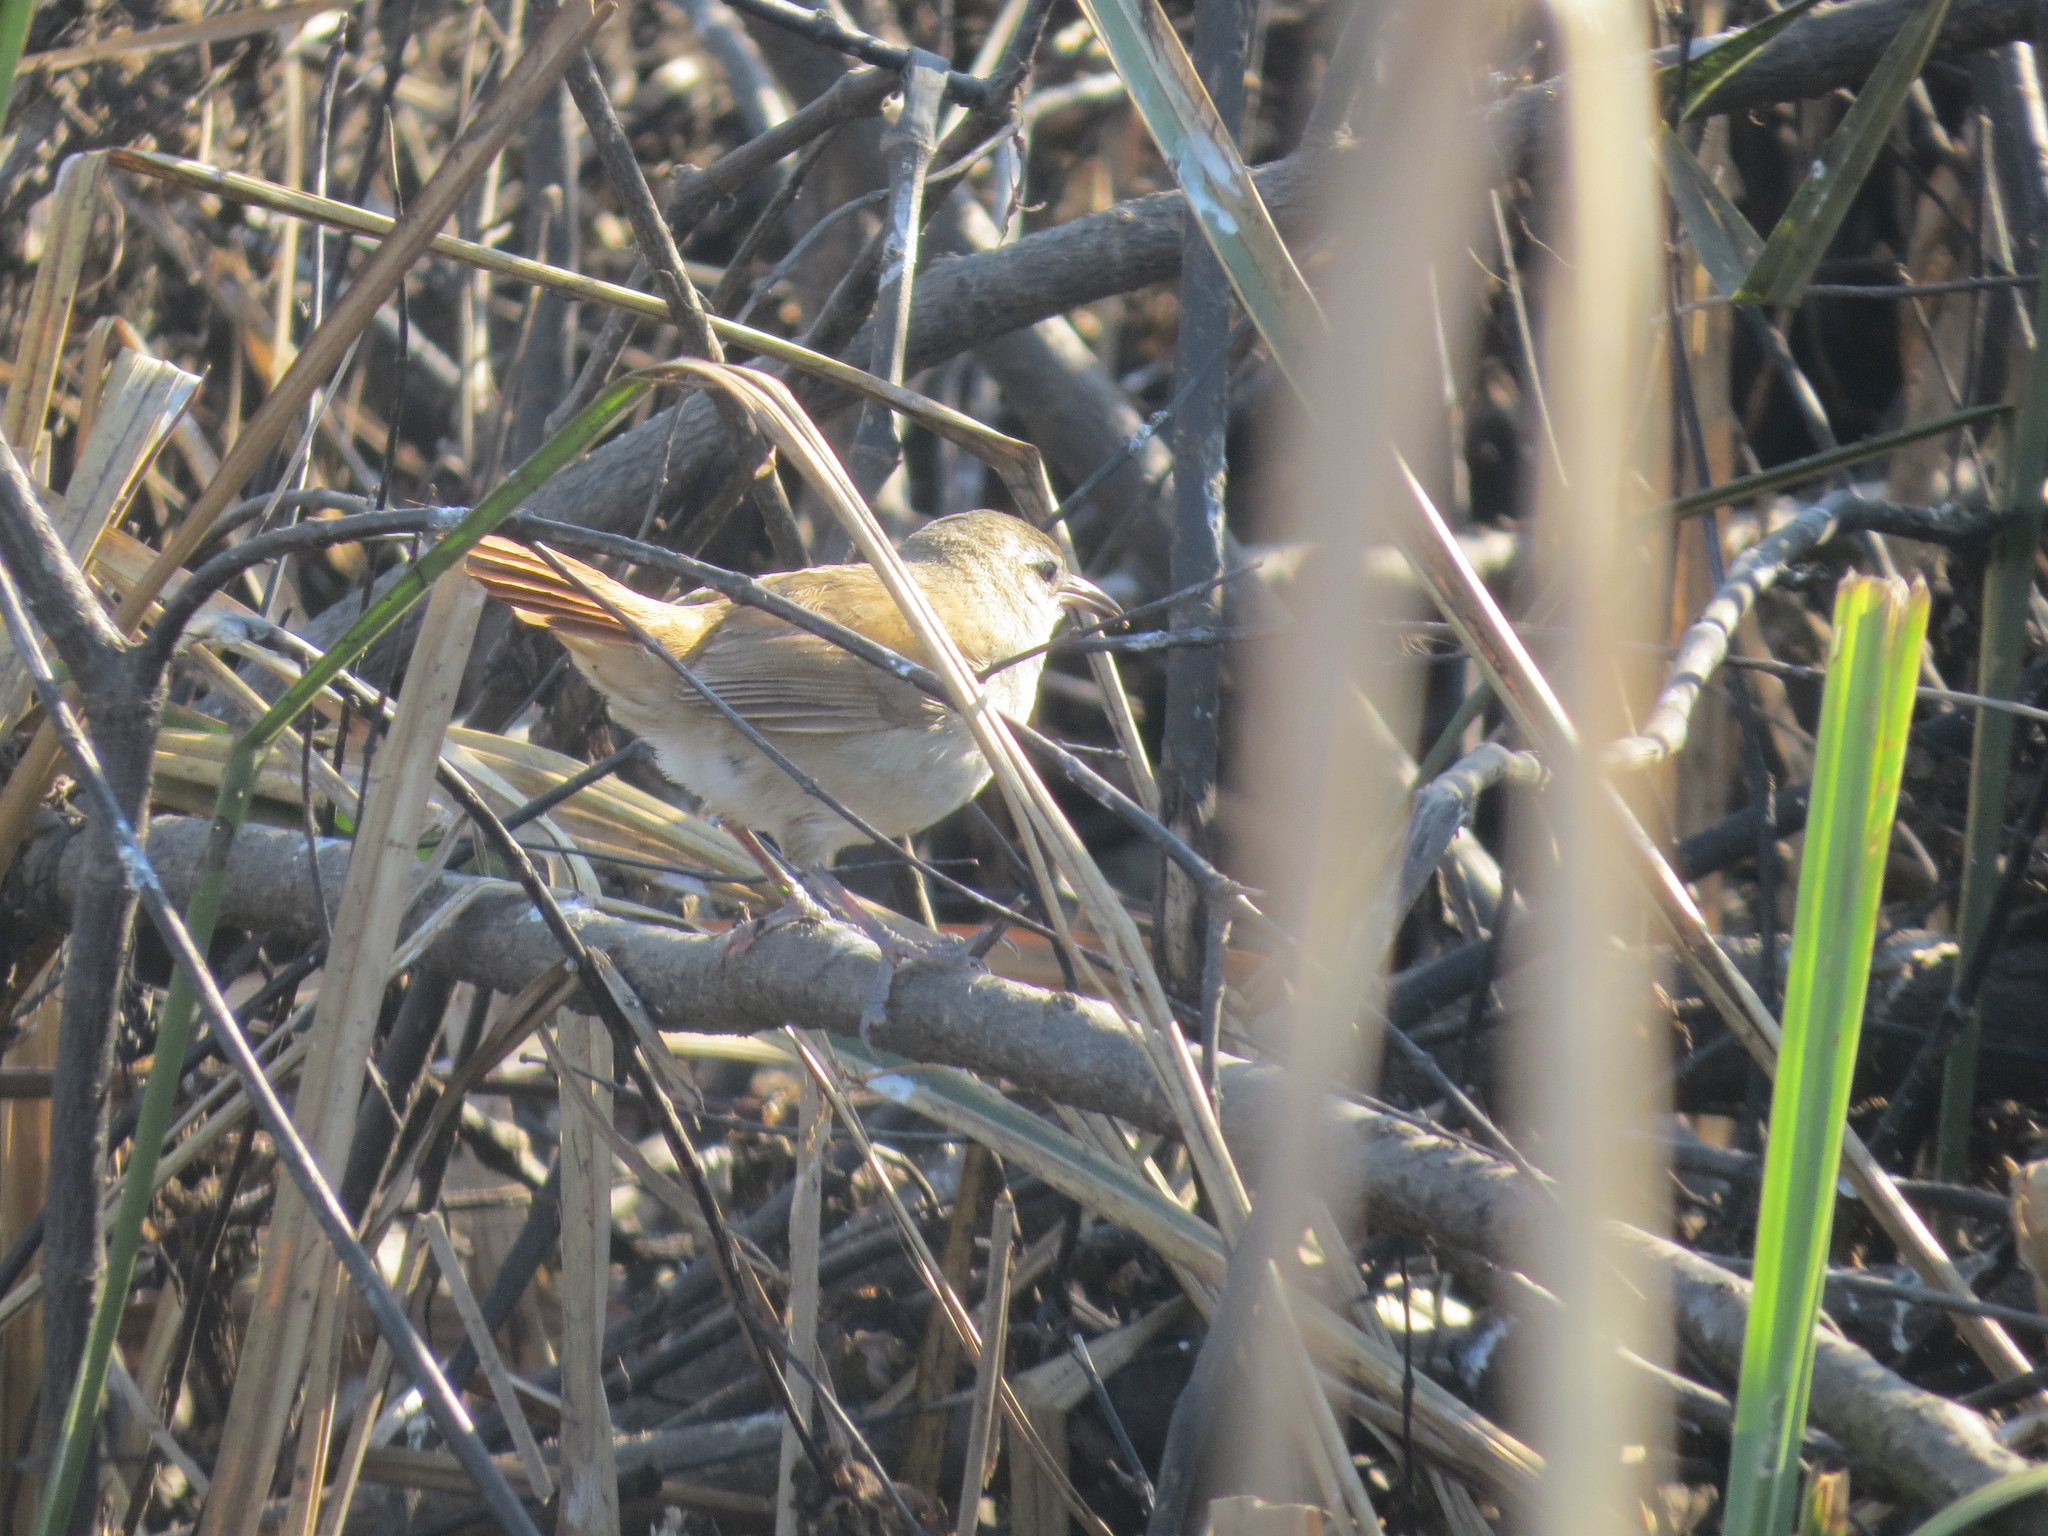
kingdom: Animalia
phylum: Chordata
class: Aves
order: Passeriformes
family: Furnariidae
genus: Limnornis
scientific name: Limnornis curvirostris
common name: Curve-billed reedhaunter
